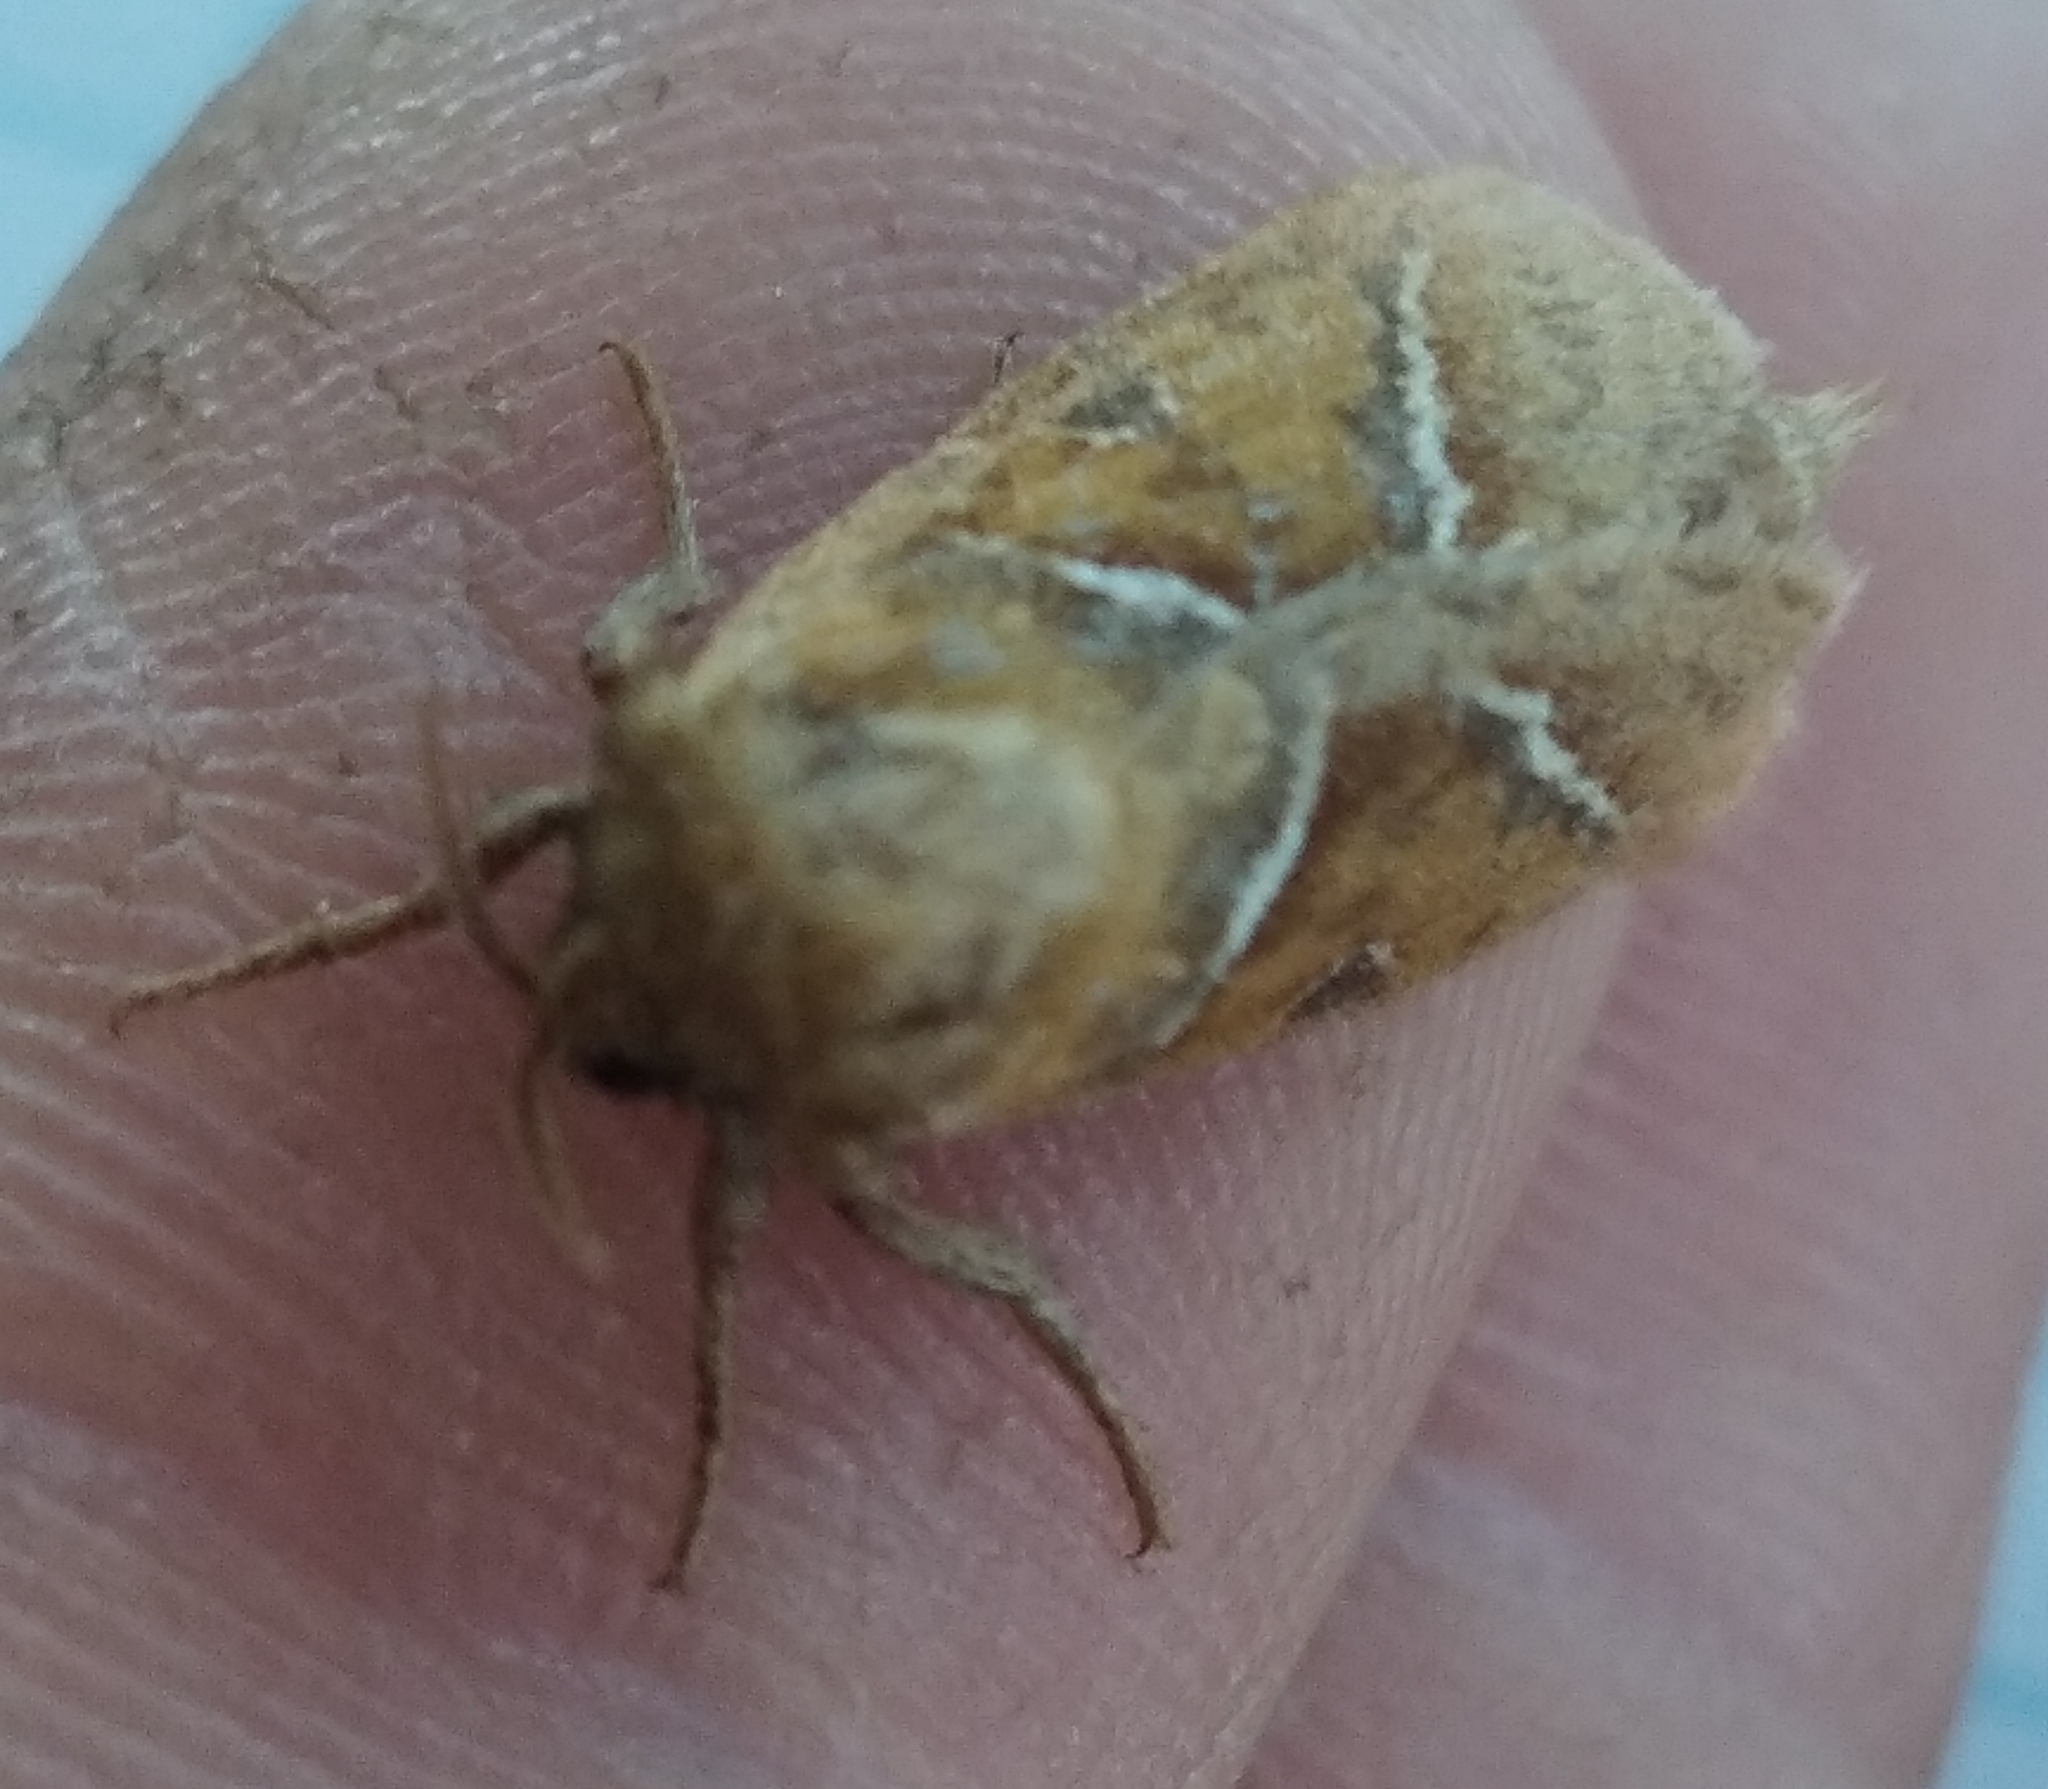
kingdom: Animalia
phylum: Arthropoda
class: Insecta
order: Lepidoptera
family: Hepialidae
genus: Triodia
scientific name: Triodia sylvina
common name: Orange swift
